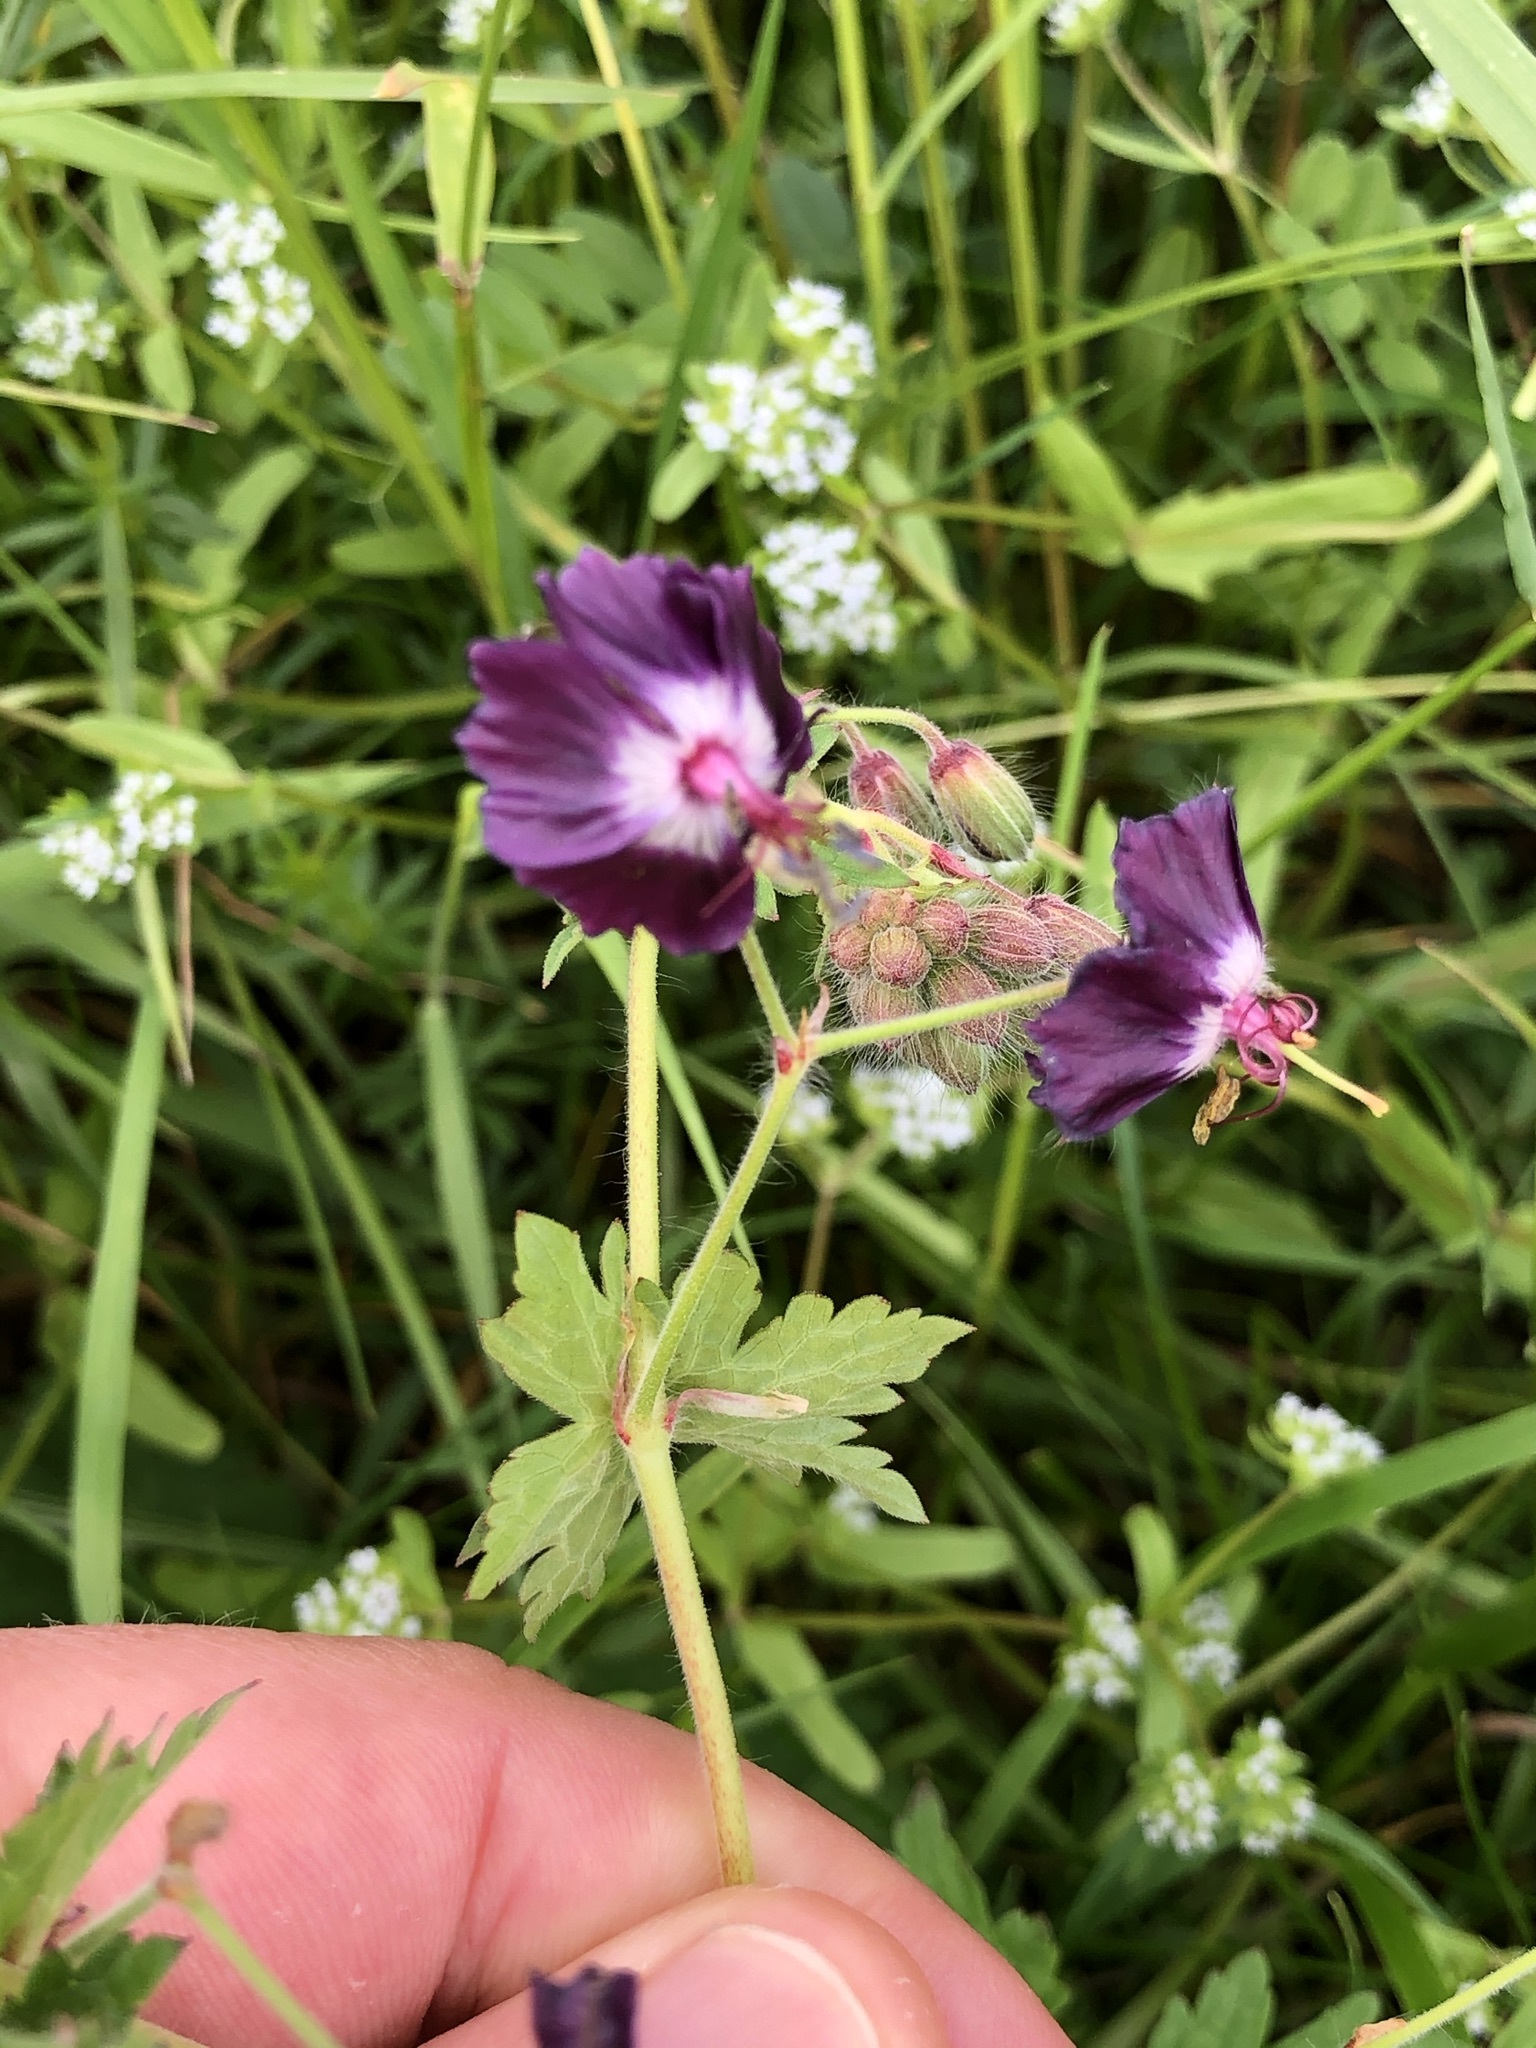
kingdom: Plantae
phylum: Tracheophyta
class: Magnoliopsida
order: Geraniales
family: Geraniaceae
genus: Geranium
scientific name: Geranium phaeum
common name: Dusky crane's-bill
